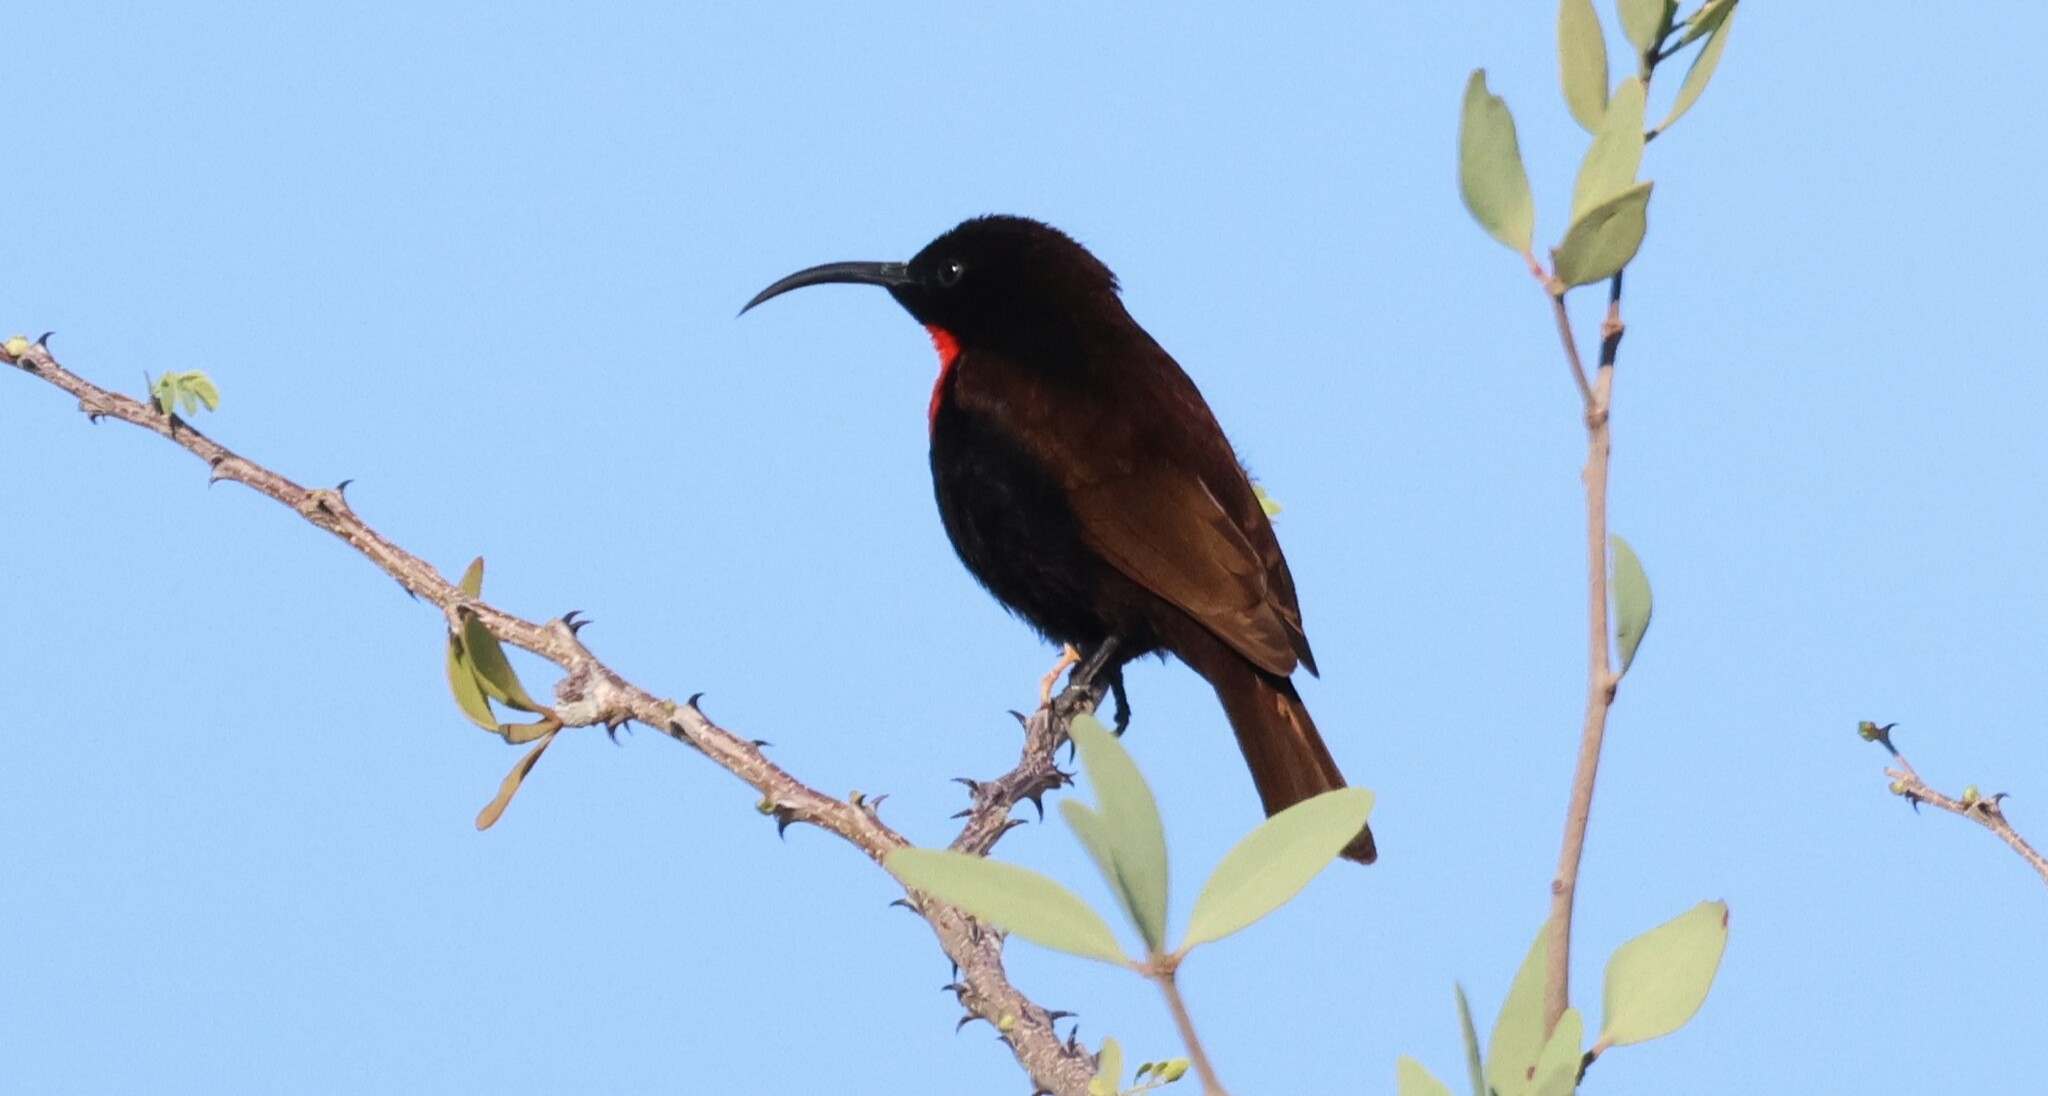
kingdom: Animalia
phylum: Chordata
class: Aves
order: Passeriformes
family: Nectariniidae
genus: Chalcomitra
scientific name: Chalcomitra senegalensis
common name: Scarlet-chested sunbird
